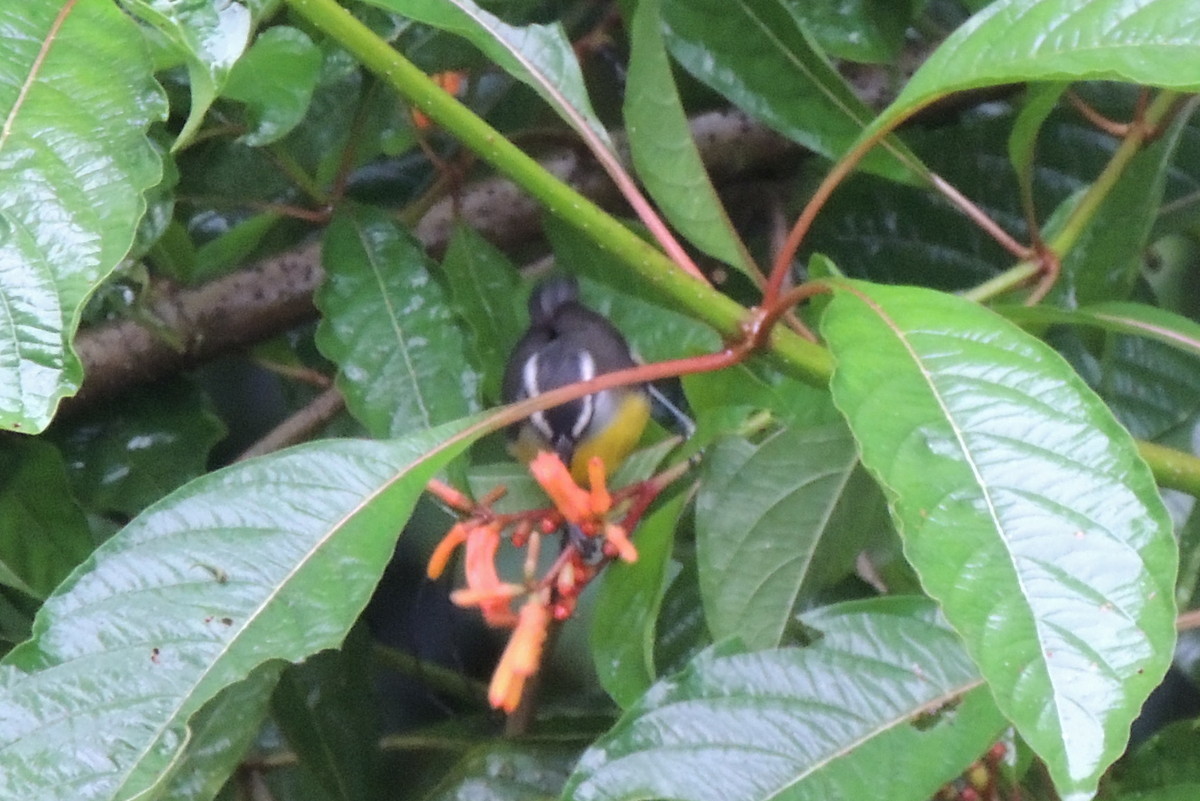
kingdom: Animalia
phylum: Chordata
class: Aves
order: Passeriformes
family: Thraupidae
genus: Coereba
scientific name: Coereba flaveola
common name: Bananaquit
